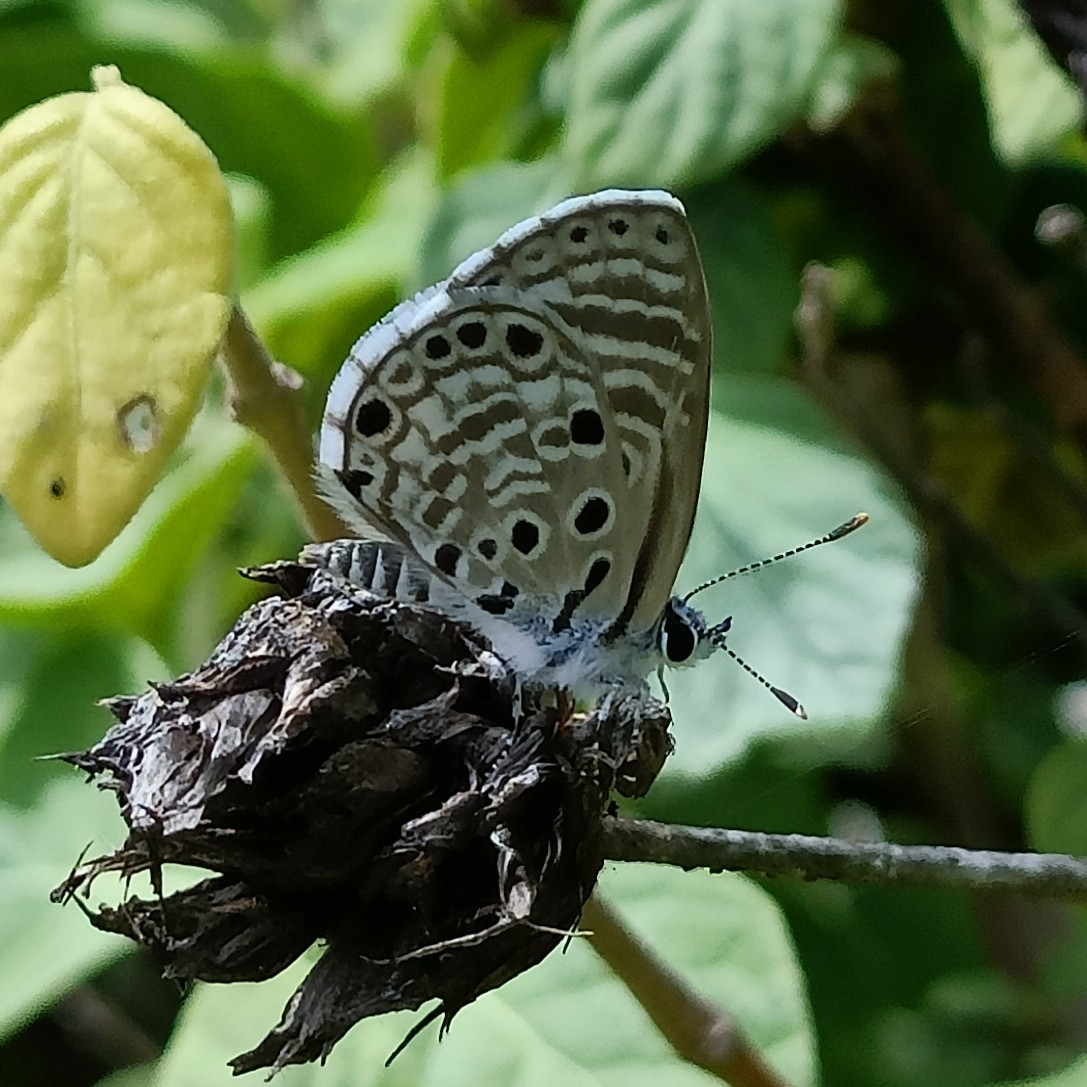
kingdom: Animalia
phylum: Arthropoda
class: Insecta
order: Lepidoptera
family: Lycaenidae
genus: Azanus
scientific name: Azanus jesous
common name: African babul blue
